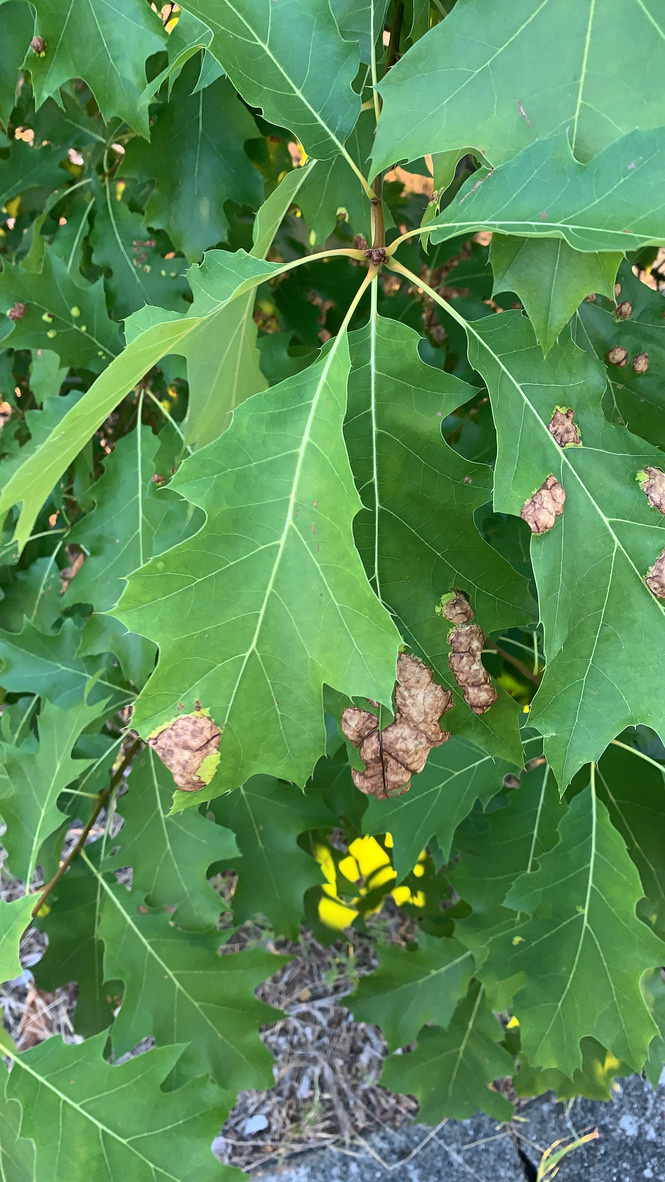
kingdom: Fungi
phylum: Ascomycota
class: Taphrinomycetes
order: Taphrinales
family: Taphrinaceae
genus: Taphrina
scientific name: Taphrina caerulescens
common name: Oak leaf blister
